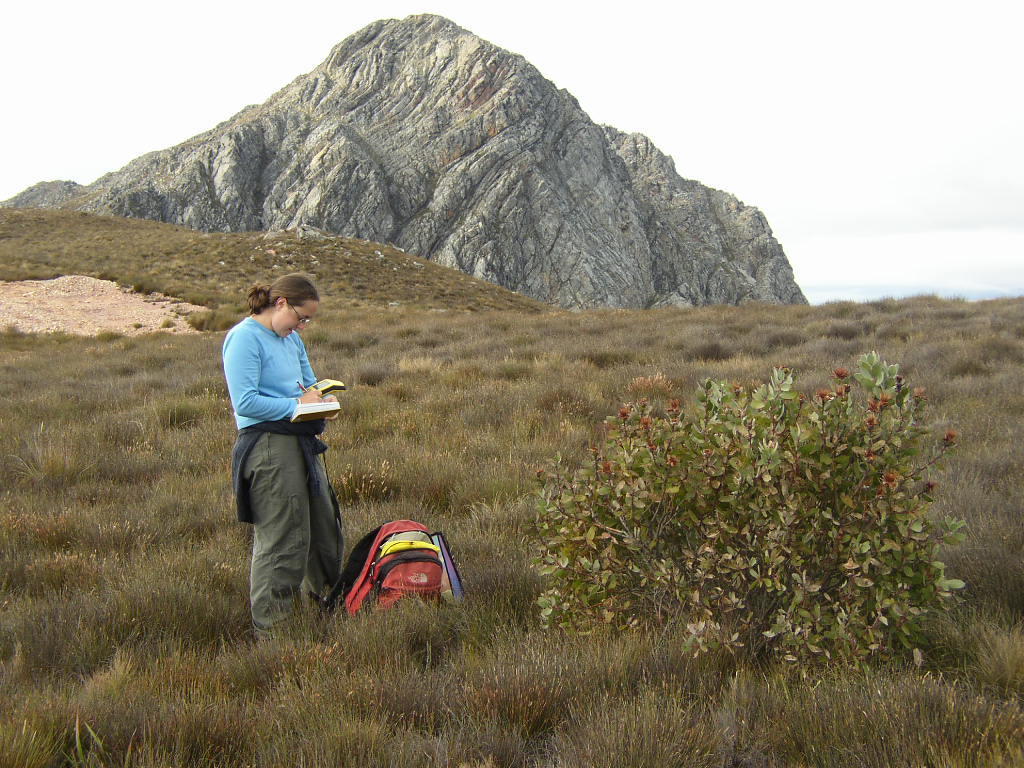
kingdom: Plantae
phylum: Tracheophyta
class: Magnoliopsida
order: Proteales
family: Proteaceae
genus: Protea
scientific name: Protea punctata
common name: Water sugarbush
